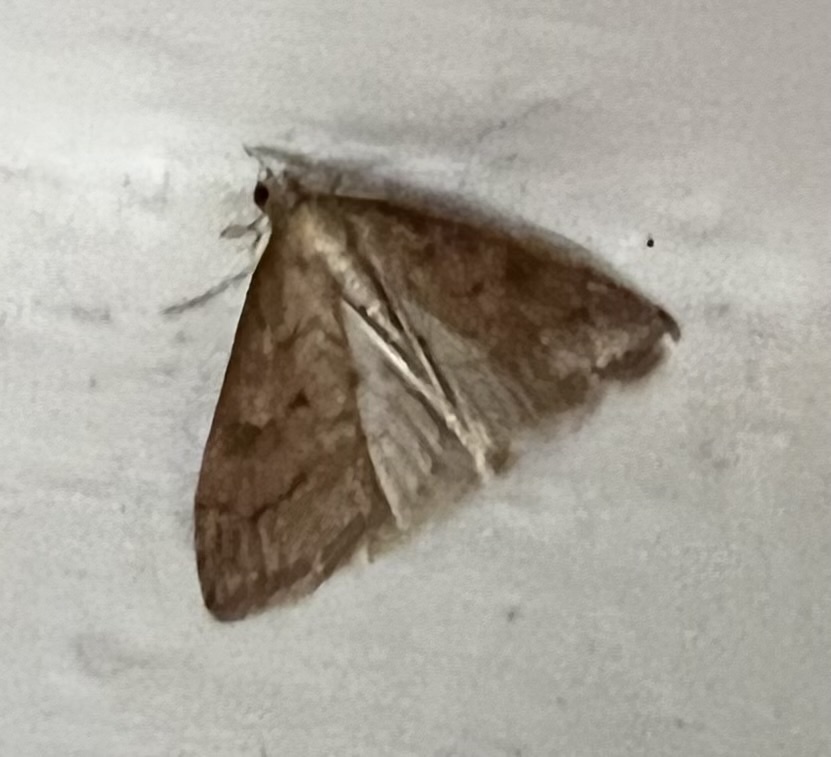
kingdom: Animalia
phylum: Arthropoda
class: Insecta
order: Lepidoptera
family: Crambidae
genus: Udea
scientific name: Udea rubigalis
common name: Celery leaftier moth
